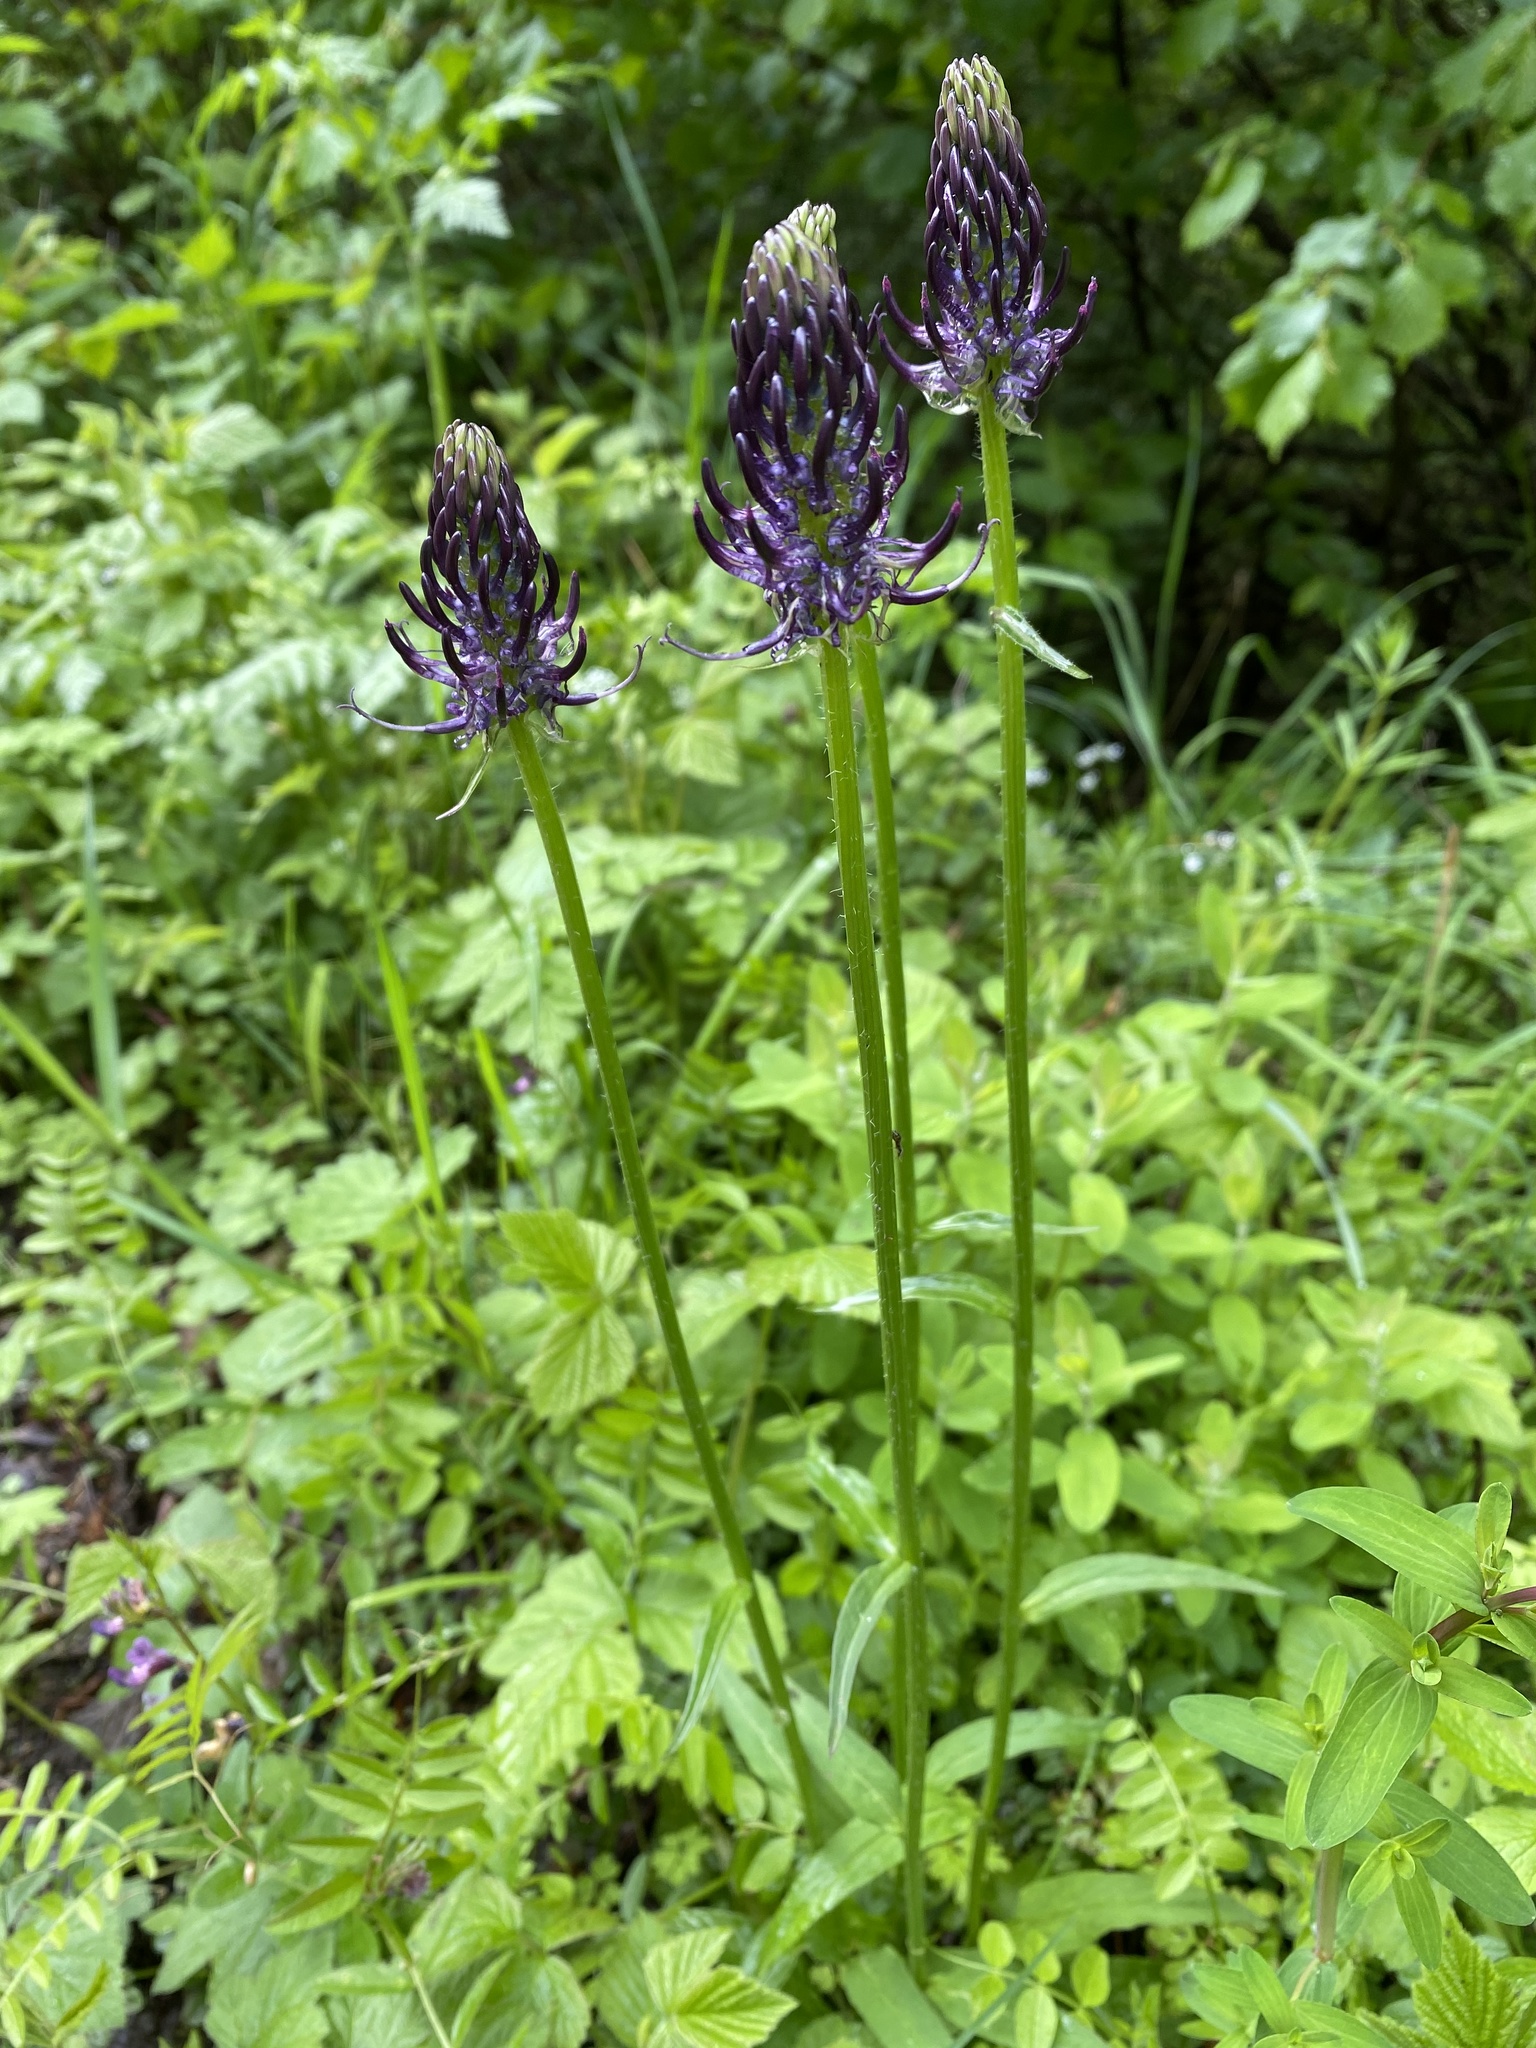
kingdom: Plantae
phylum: Tracheophyta
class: Magnoliopsida
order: Asterales
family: Campanulaceae
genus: Phyteuma
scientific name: Phyteuma nigrum
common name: Black rampion
